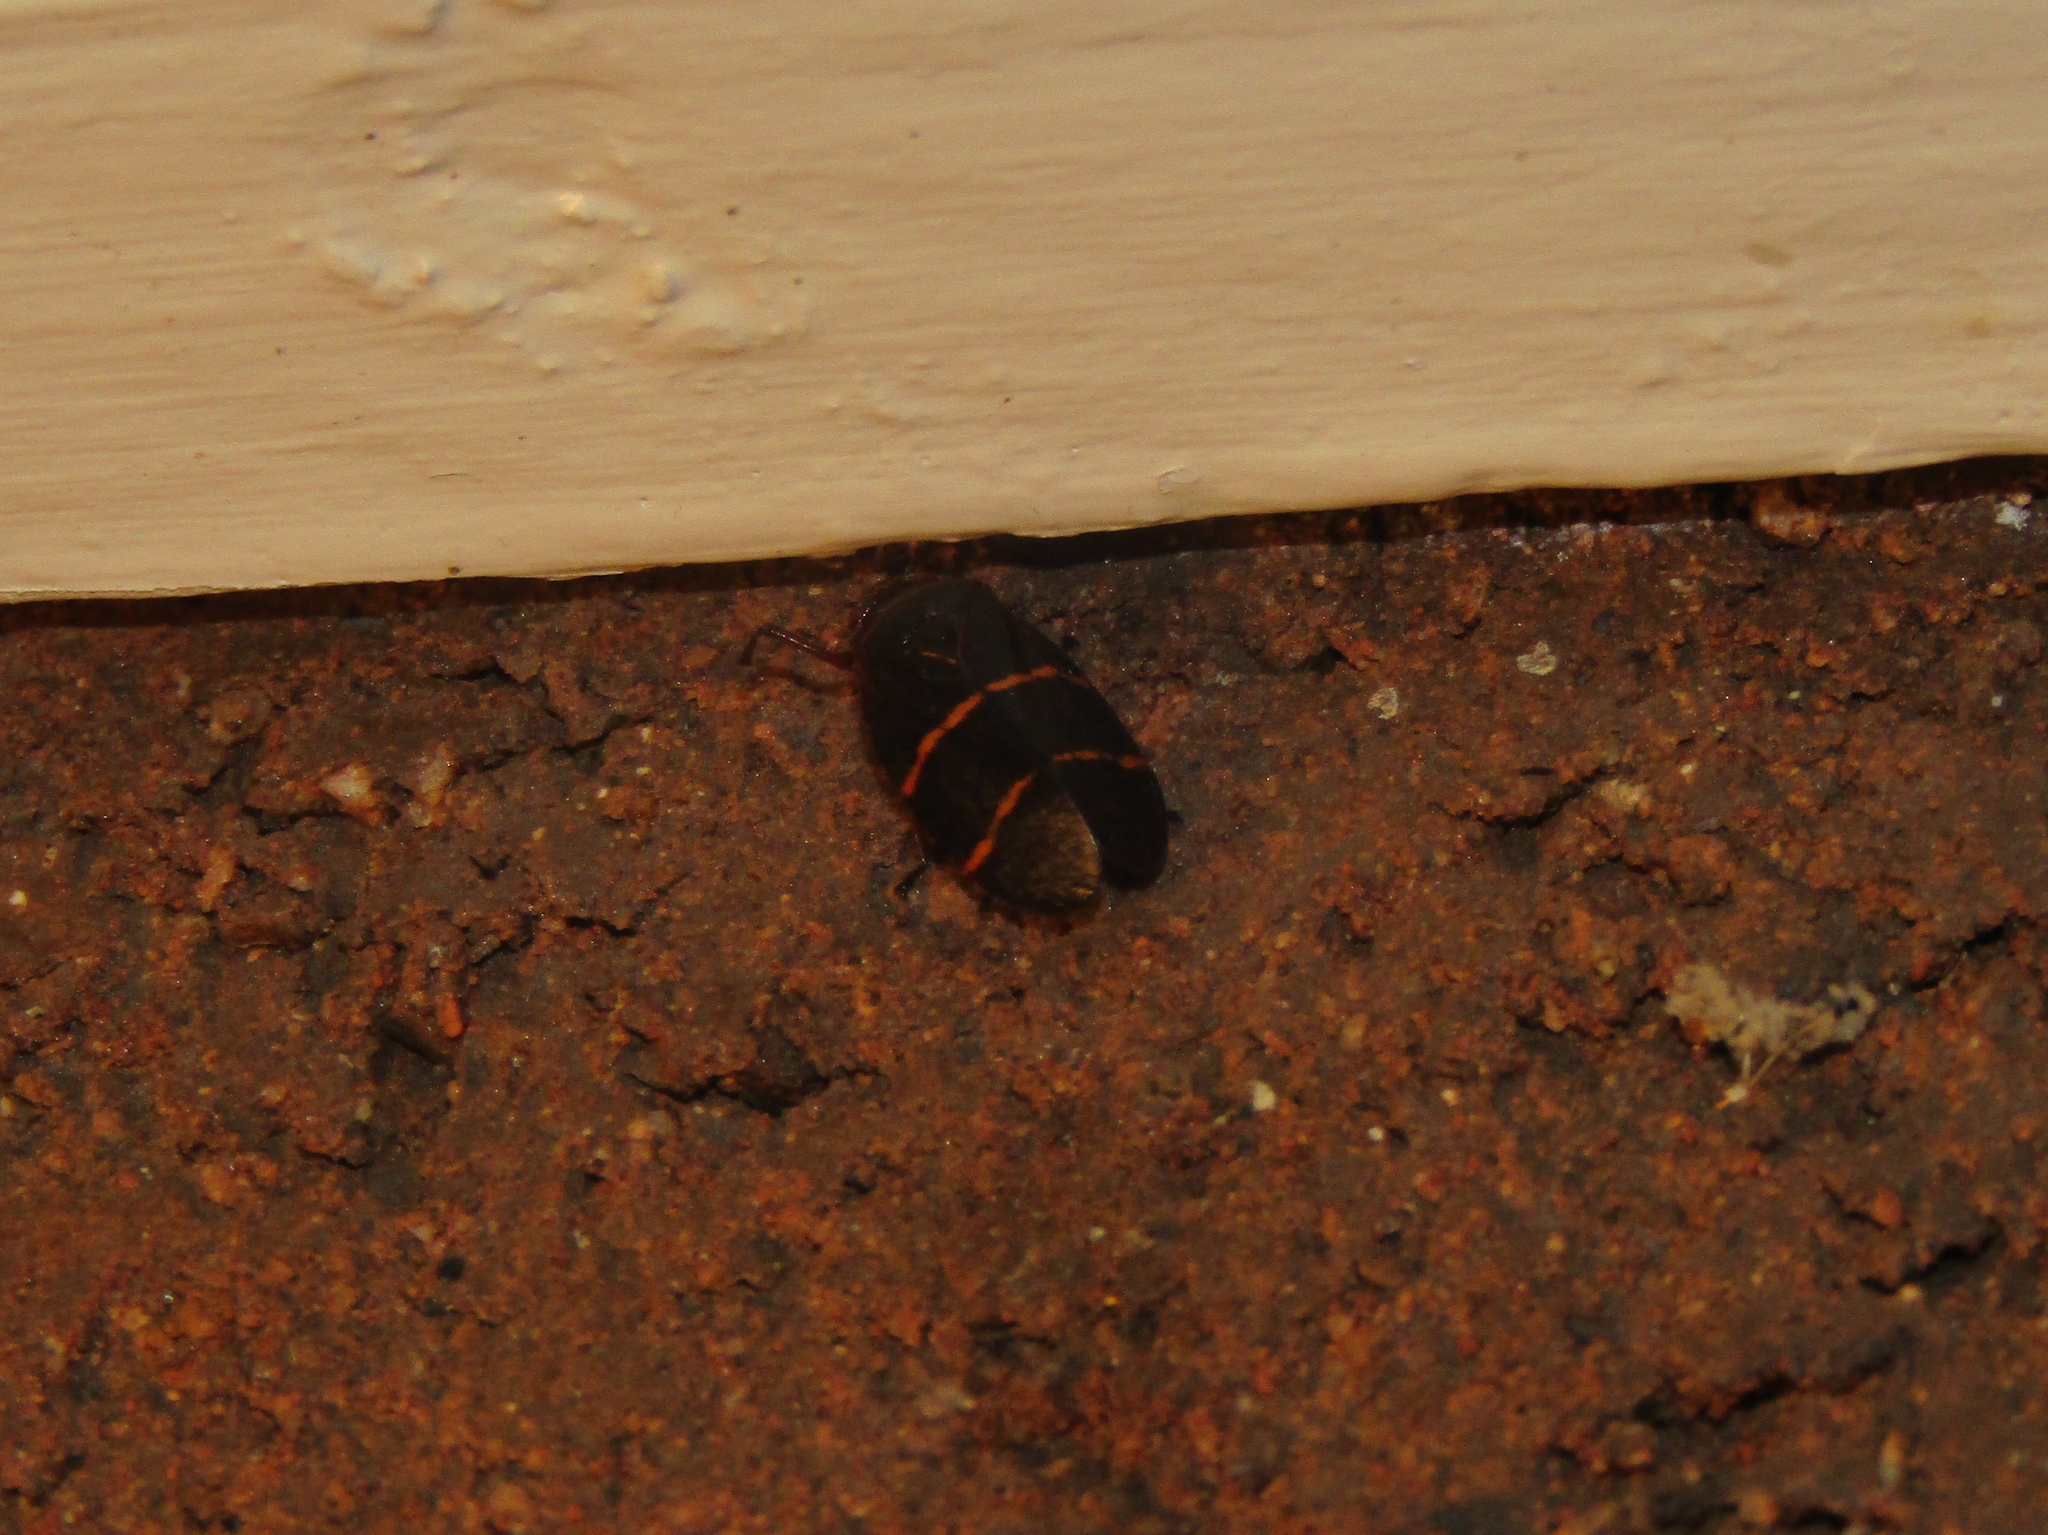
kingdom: Animalia
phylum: Arthropoda
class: Insecta
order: Hemiptera
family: Cercopidae
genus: Prosapia
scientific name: Prosapia bicincta
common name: Twolined spittlebug
